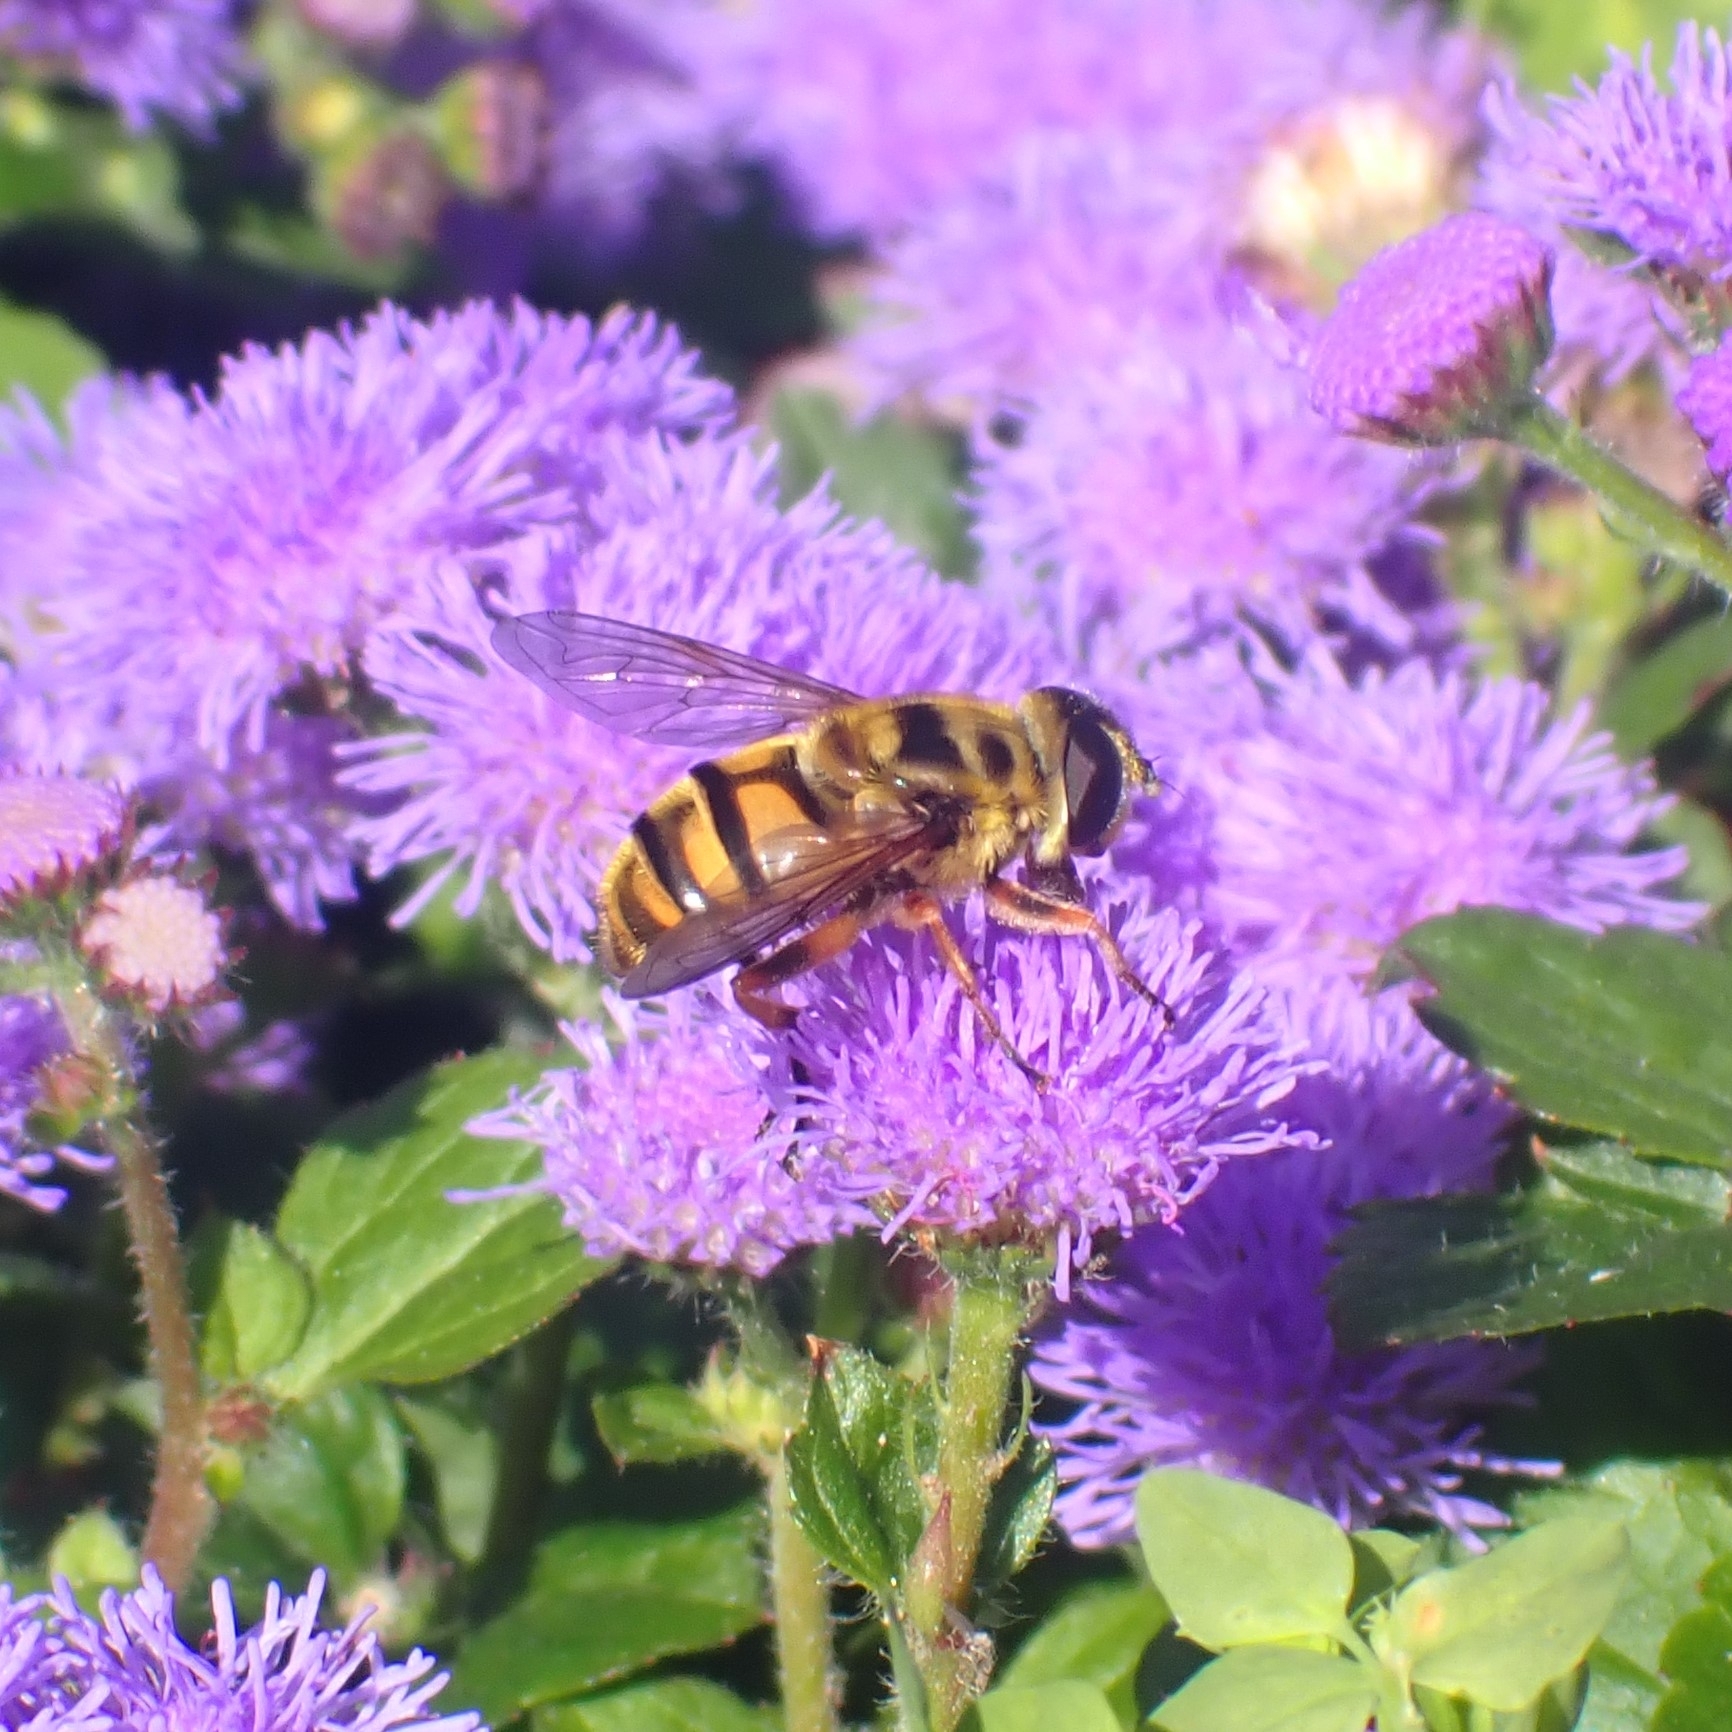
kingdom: Animalia
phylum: Arthropoda
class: Insecta
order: Diptera
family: Syrphidae
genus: Myathropa
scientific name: Myathropa florea
